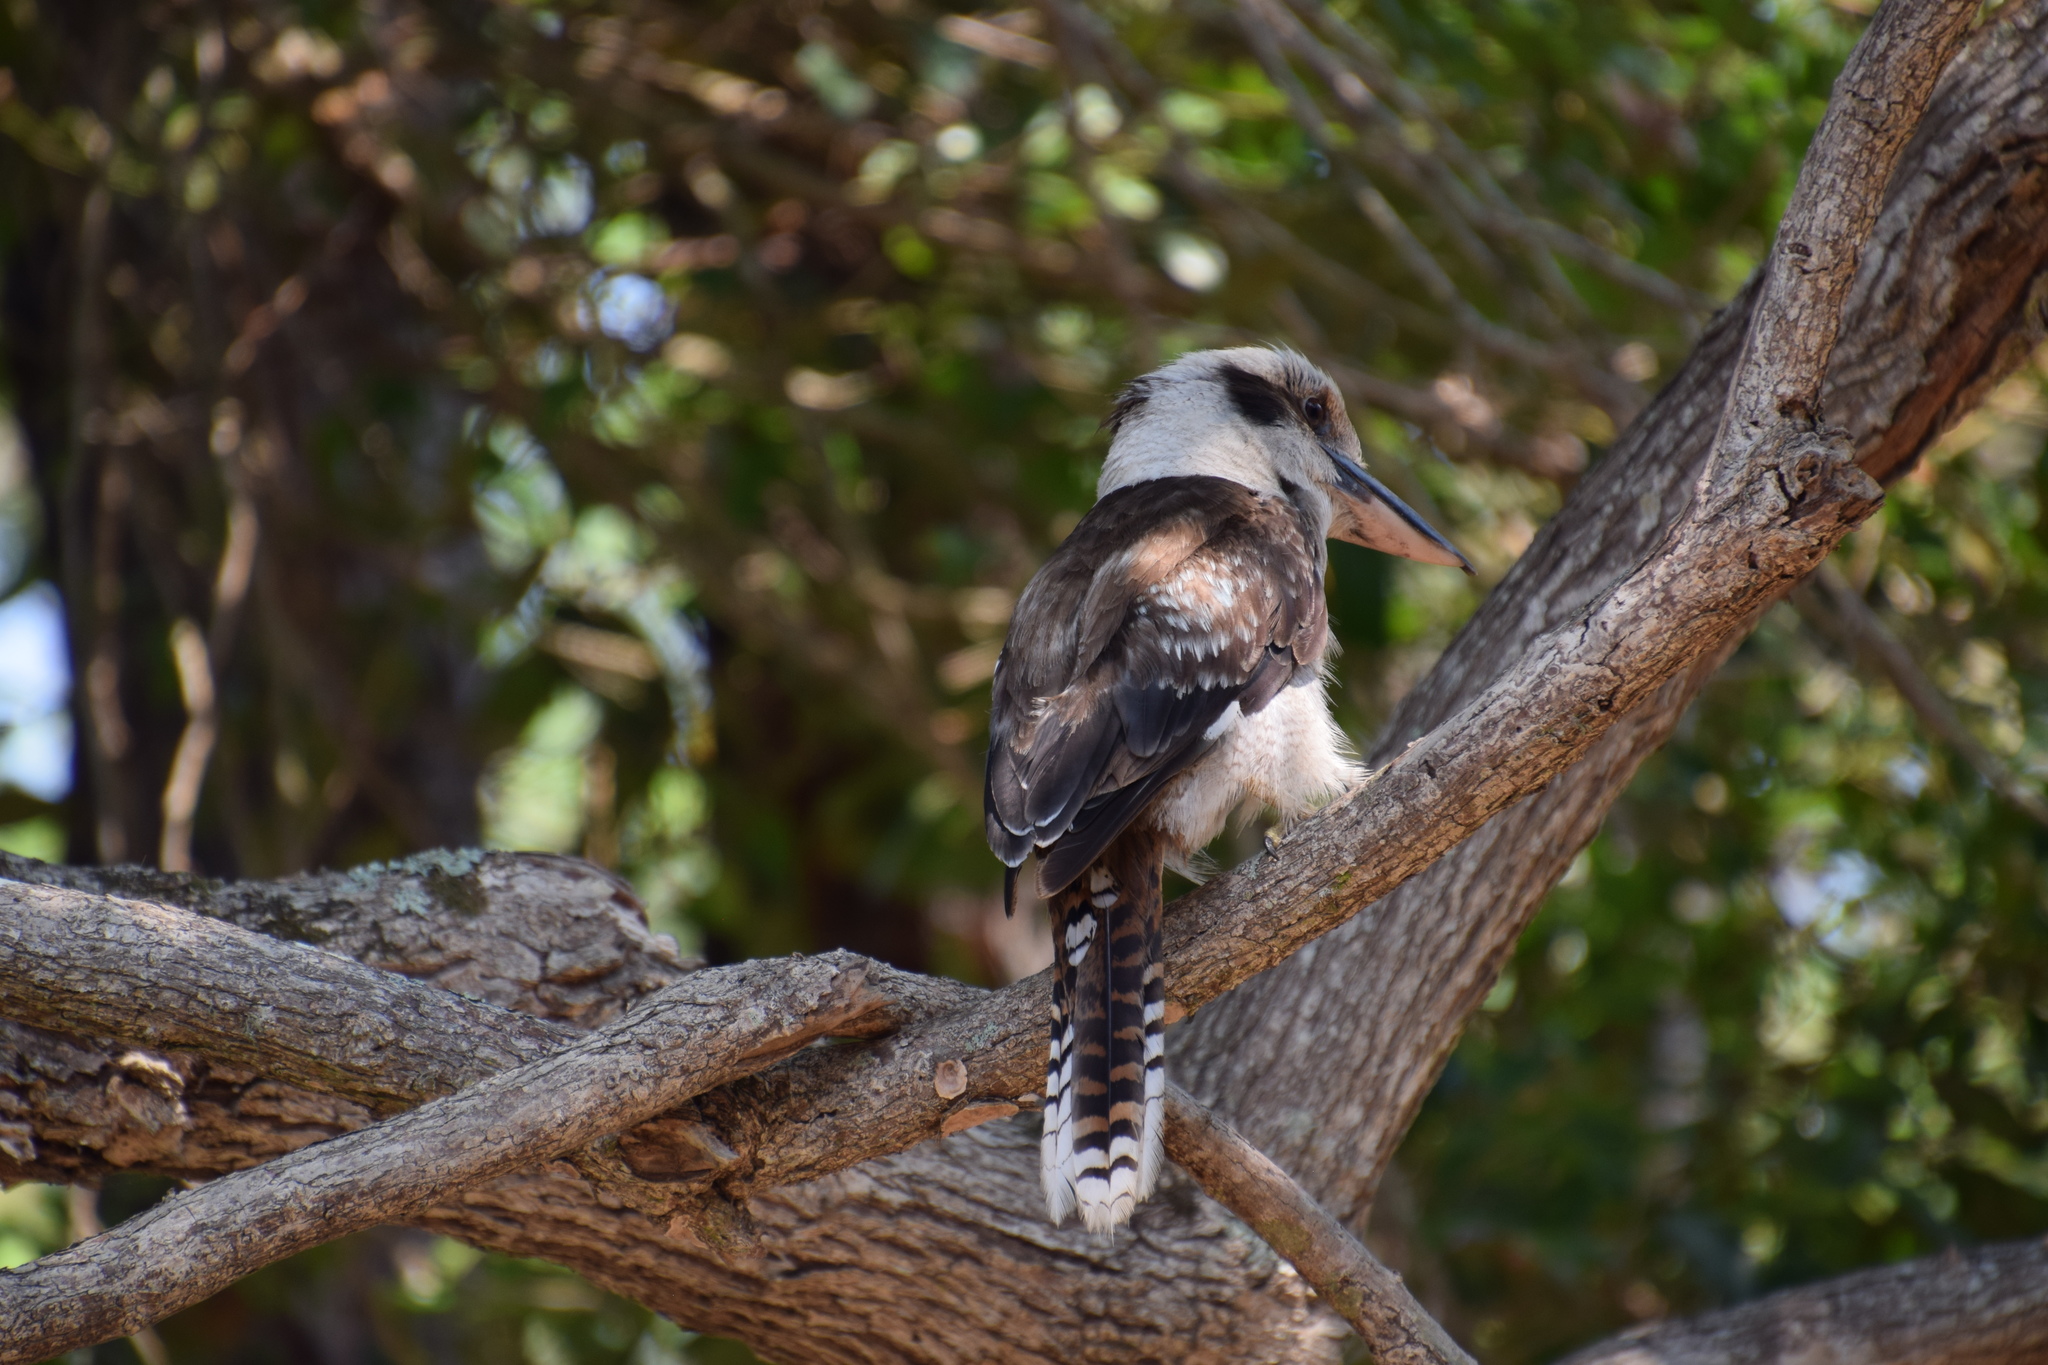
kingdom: Animalia
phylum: Chordata
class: Aves
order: Coraciiformes
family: Alcedinidae
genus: Dacelo
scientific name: Dacelo novaeguineae
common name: Laughing kookaburra
